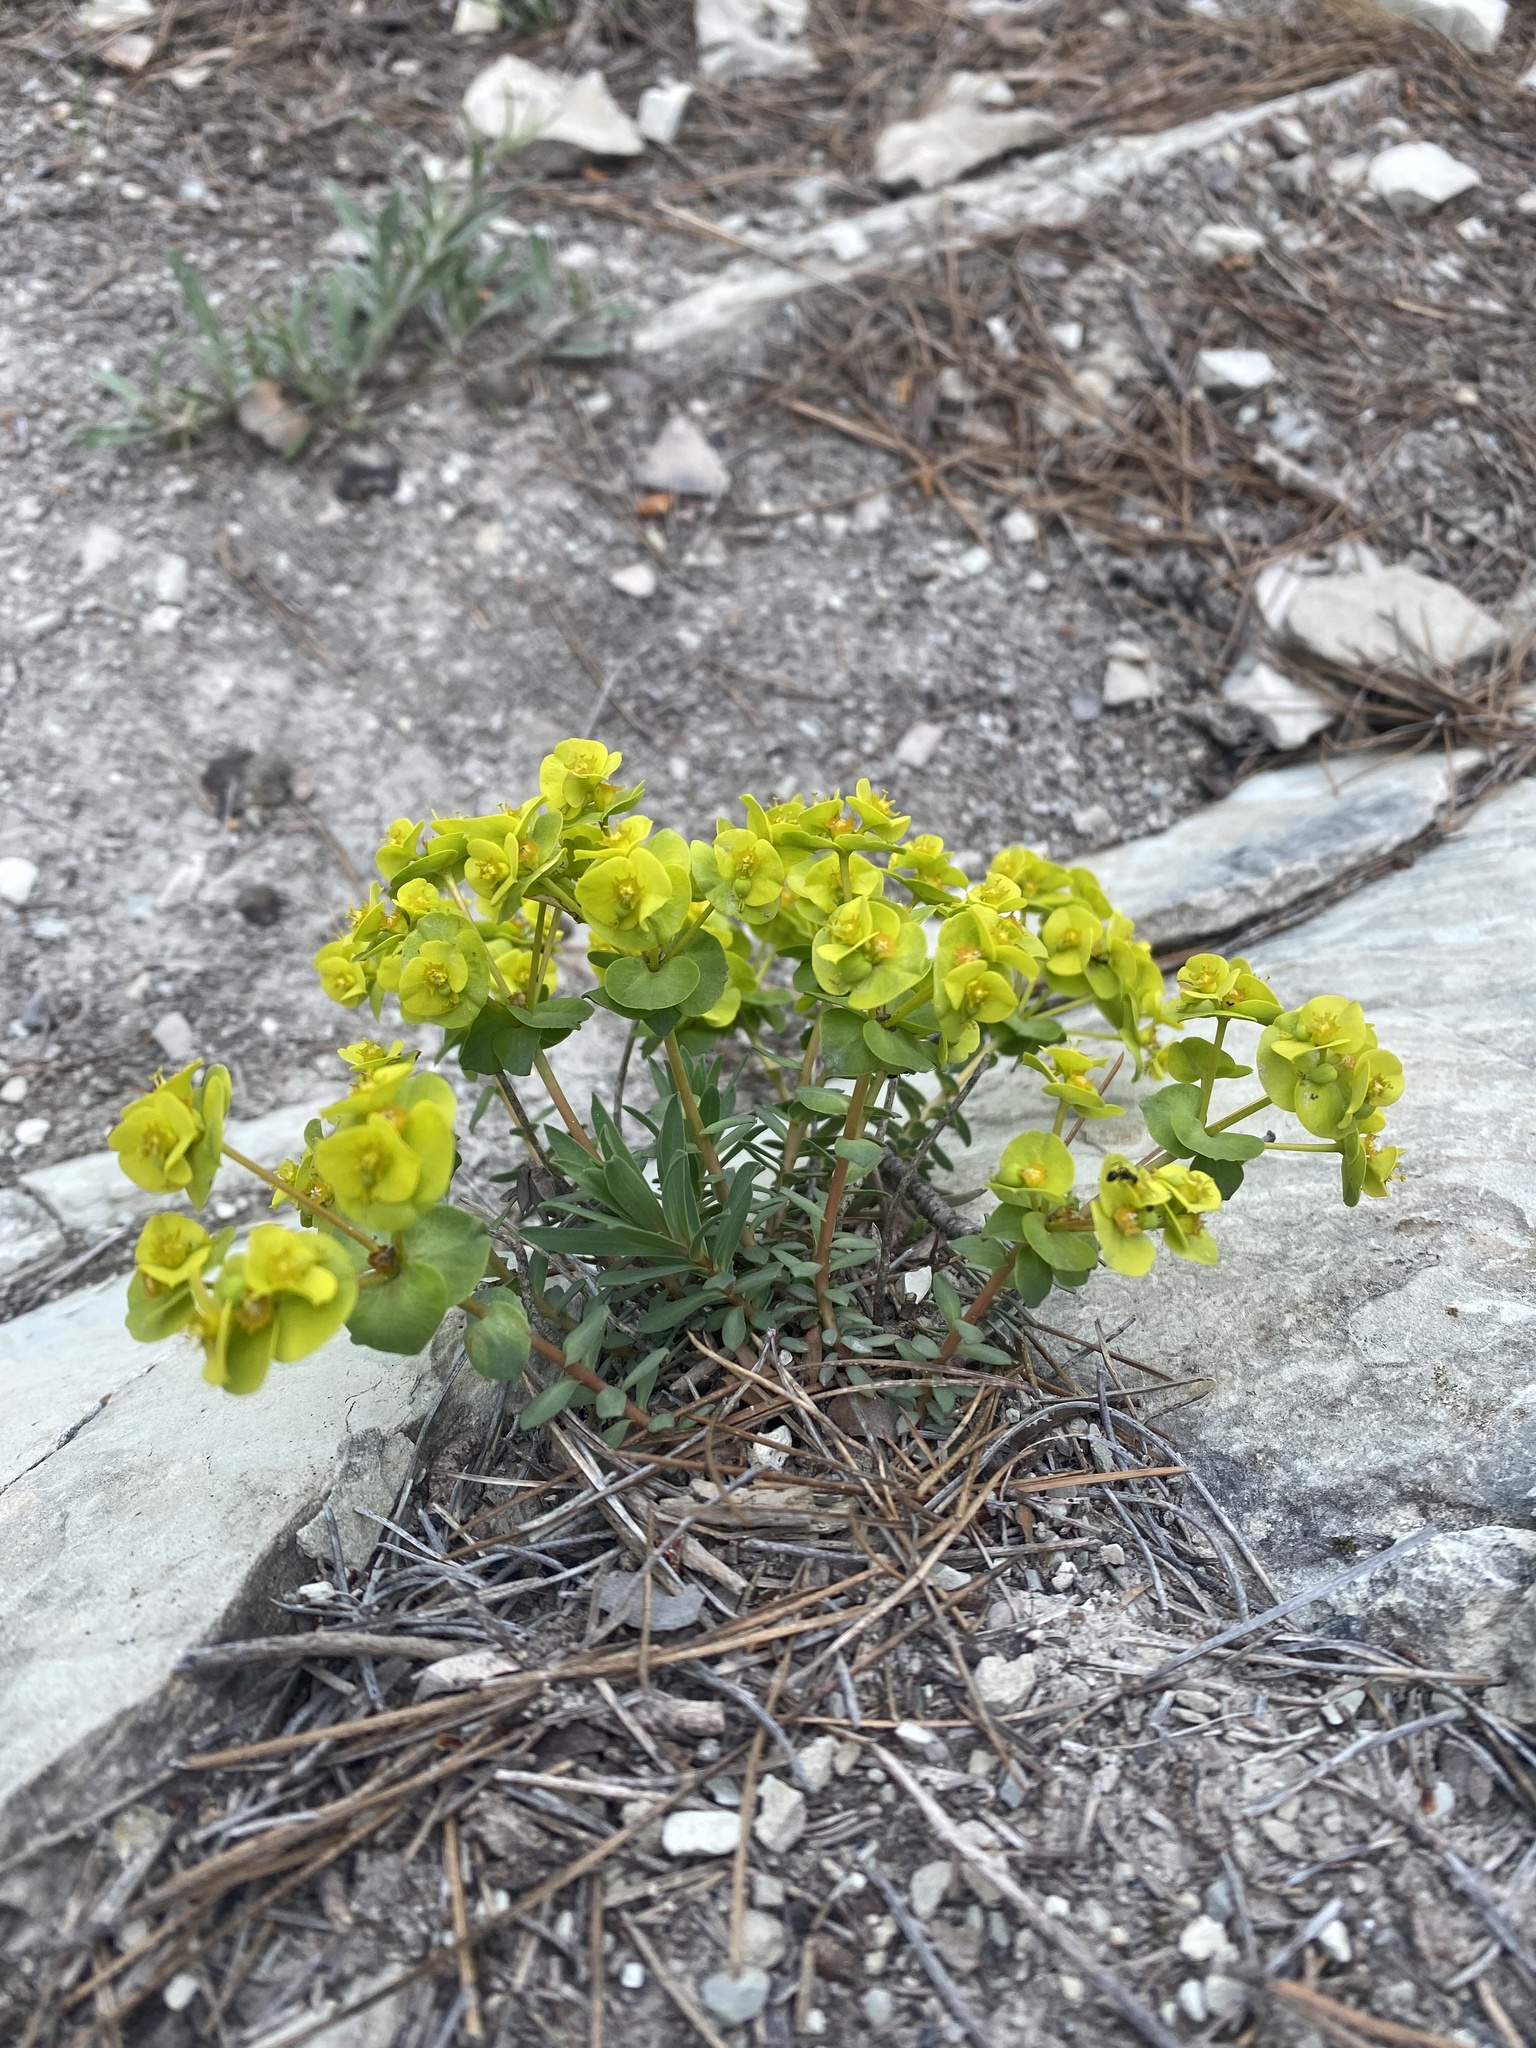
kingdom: Plantae
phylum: Tracheophyta
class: Magnoliopsida
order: Malpighiales
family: Euphorbiaceae
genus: Euphorbia
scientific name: Euphorbia petrophila
